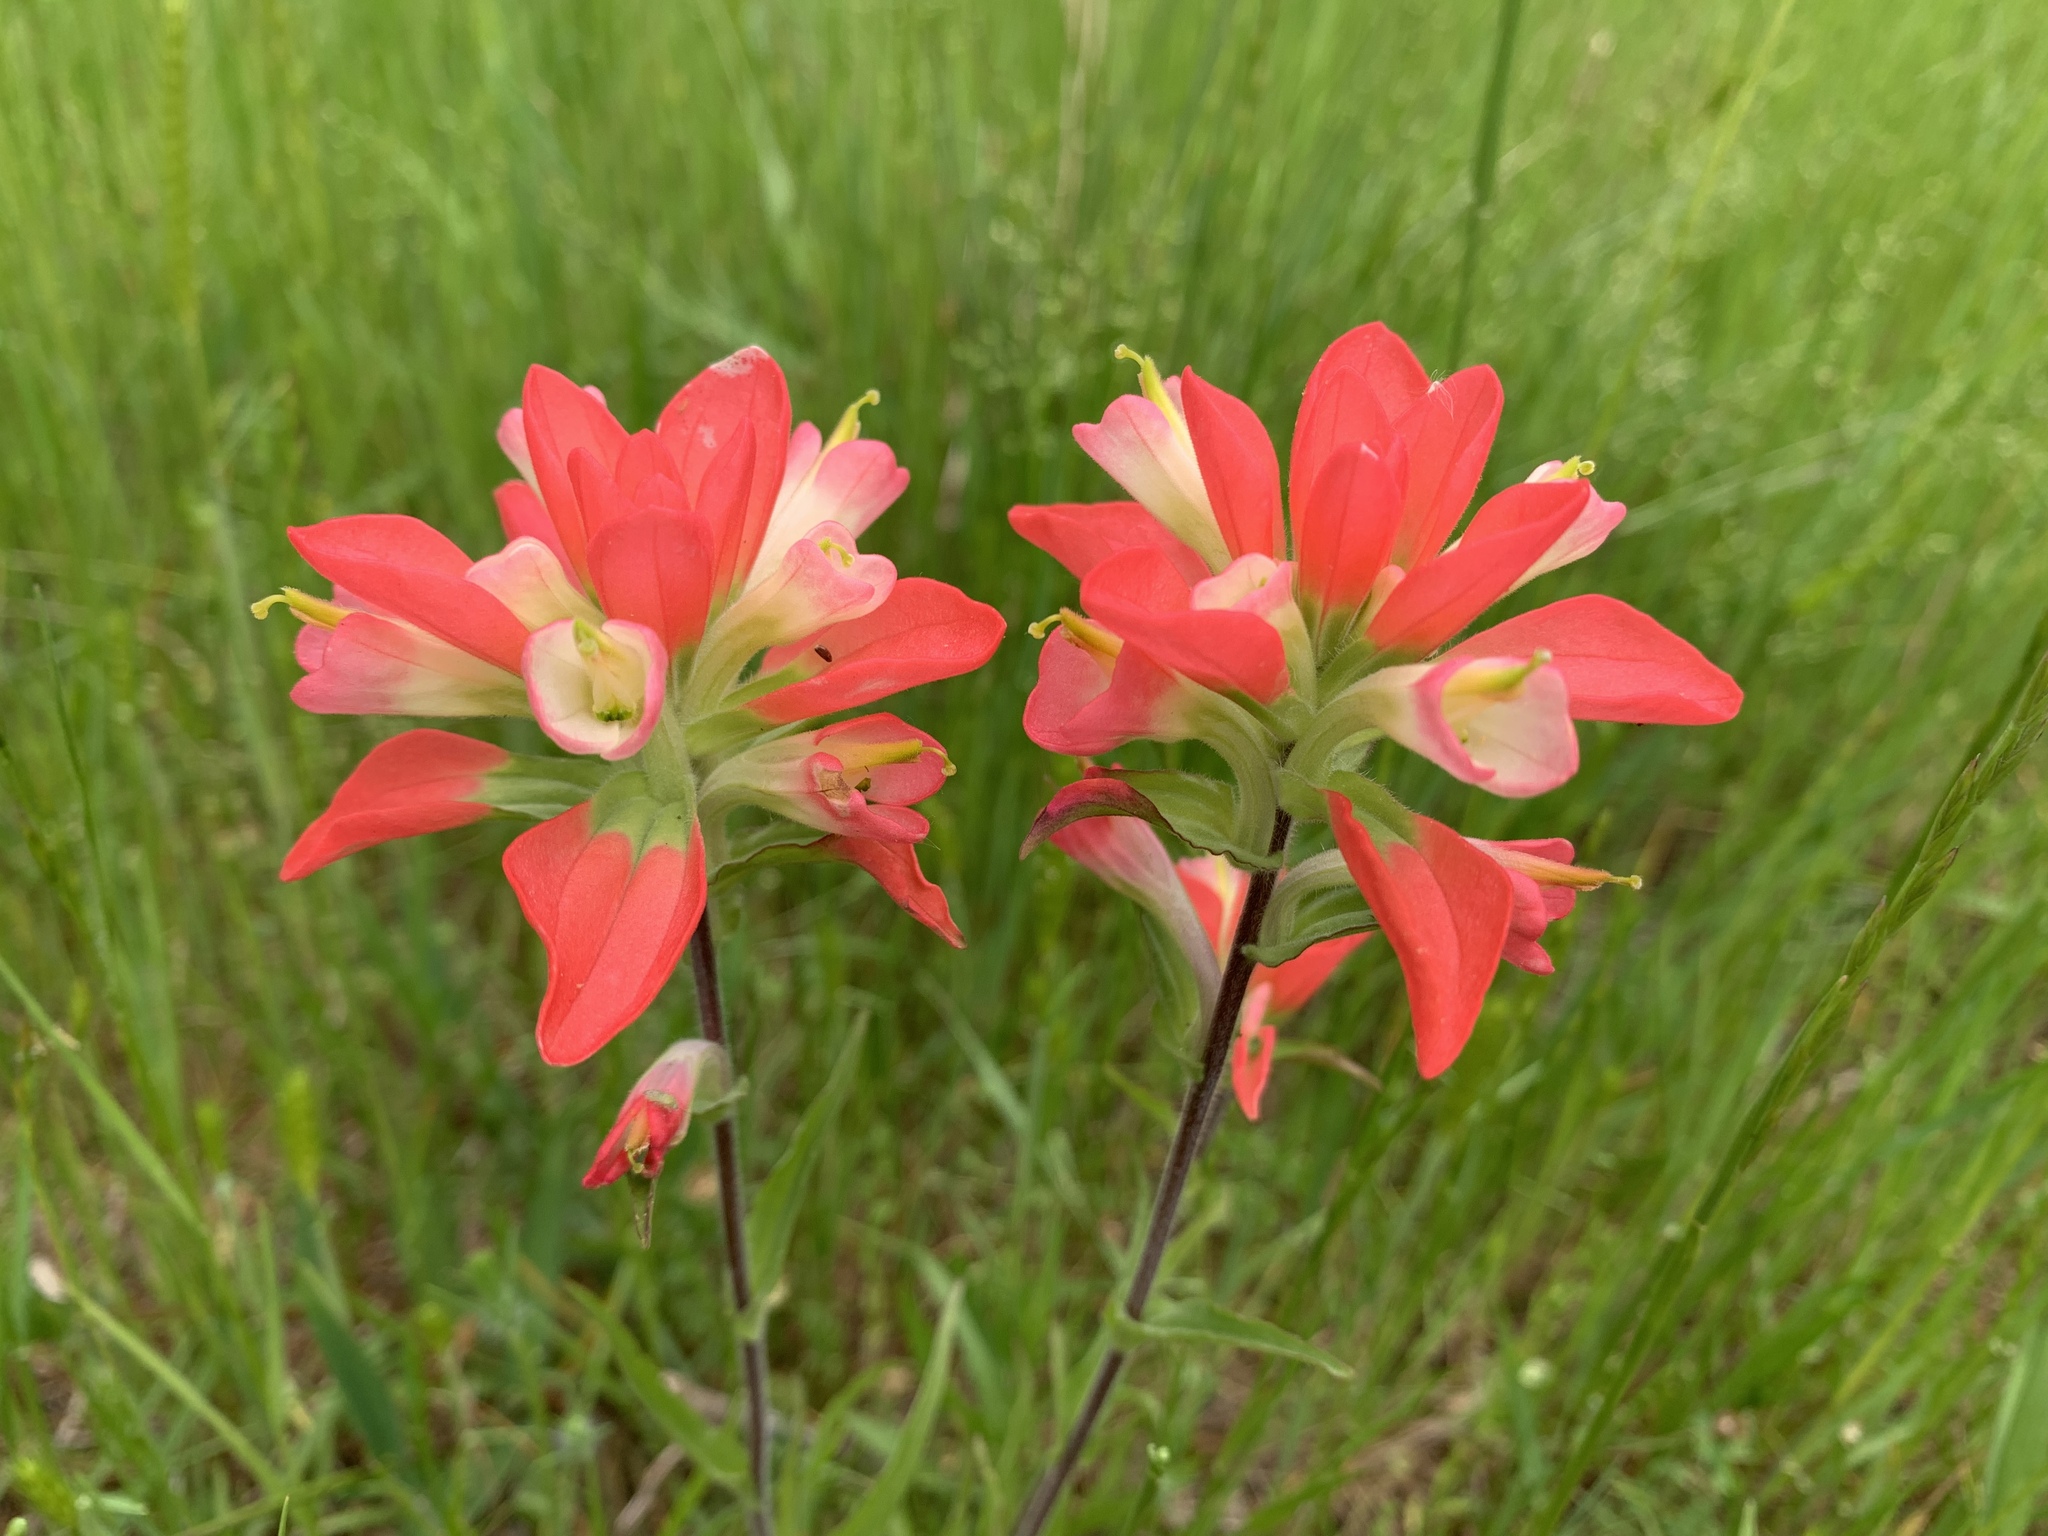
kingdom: Plantae
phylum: Tracheophyta
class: Magnoliopsida
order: Lamiales
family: Orobanchaceae
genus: Castilleja
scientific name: Castilleja indivisa
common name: Texas paintbrush
